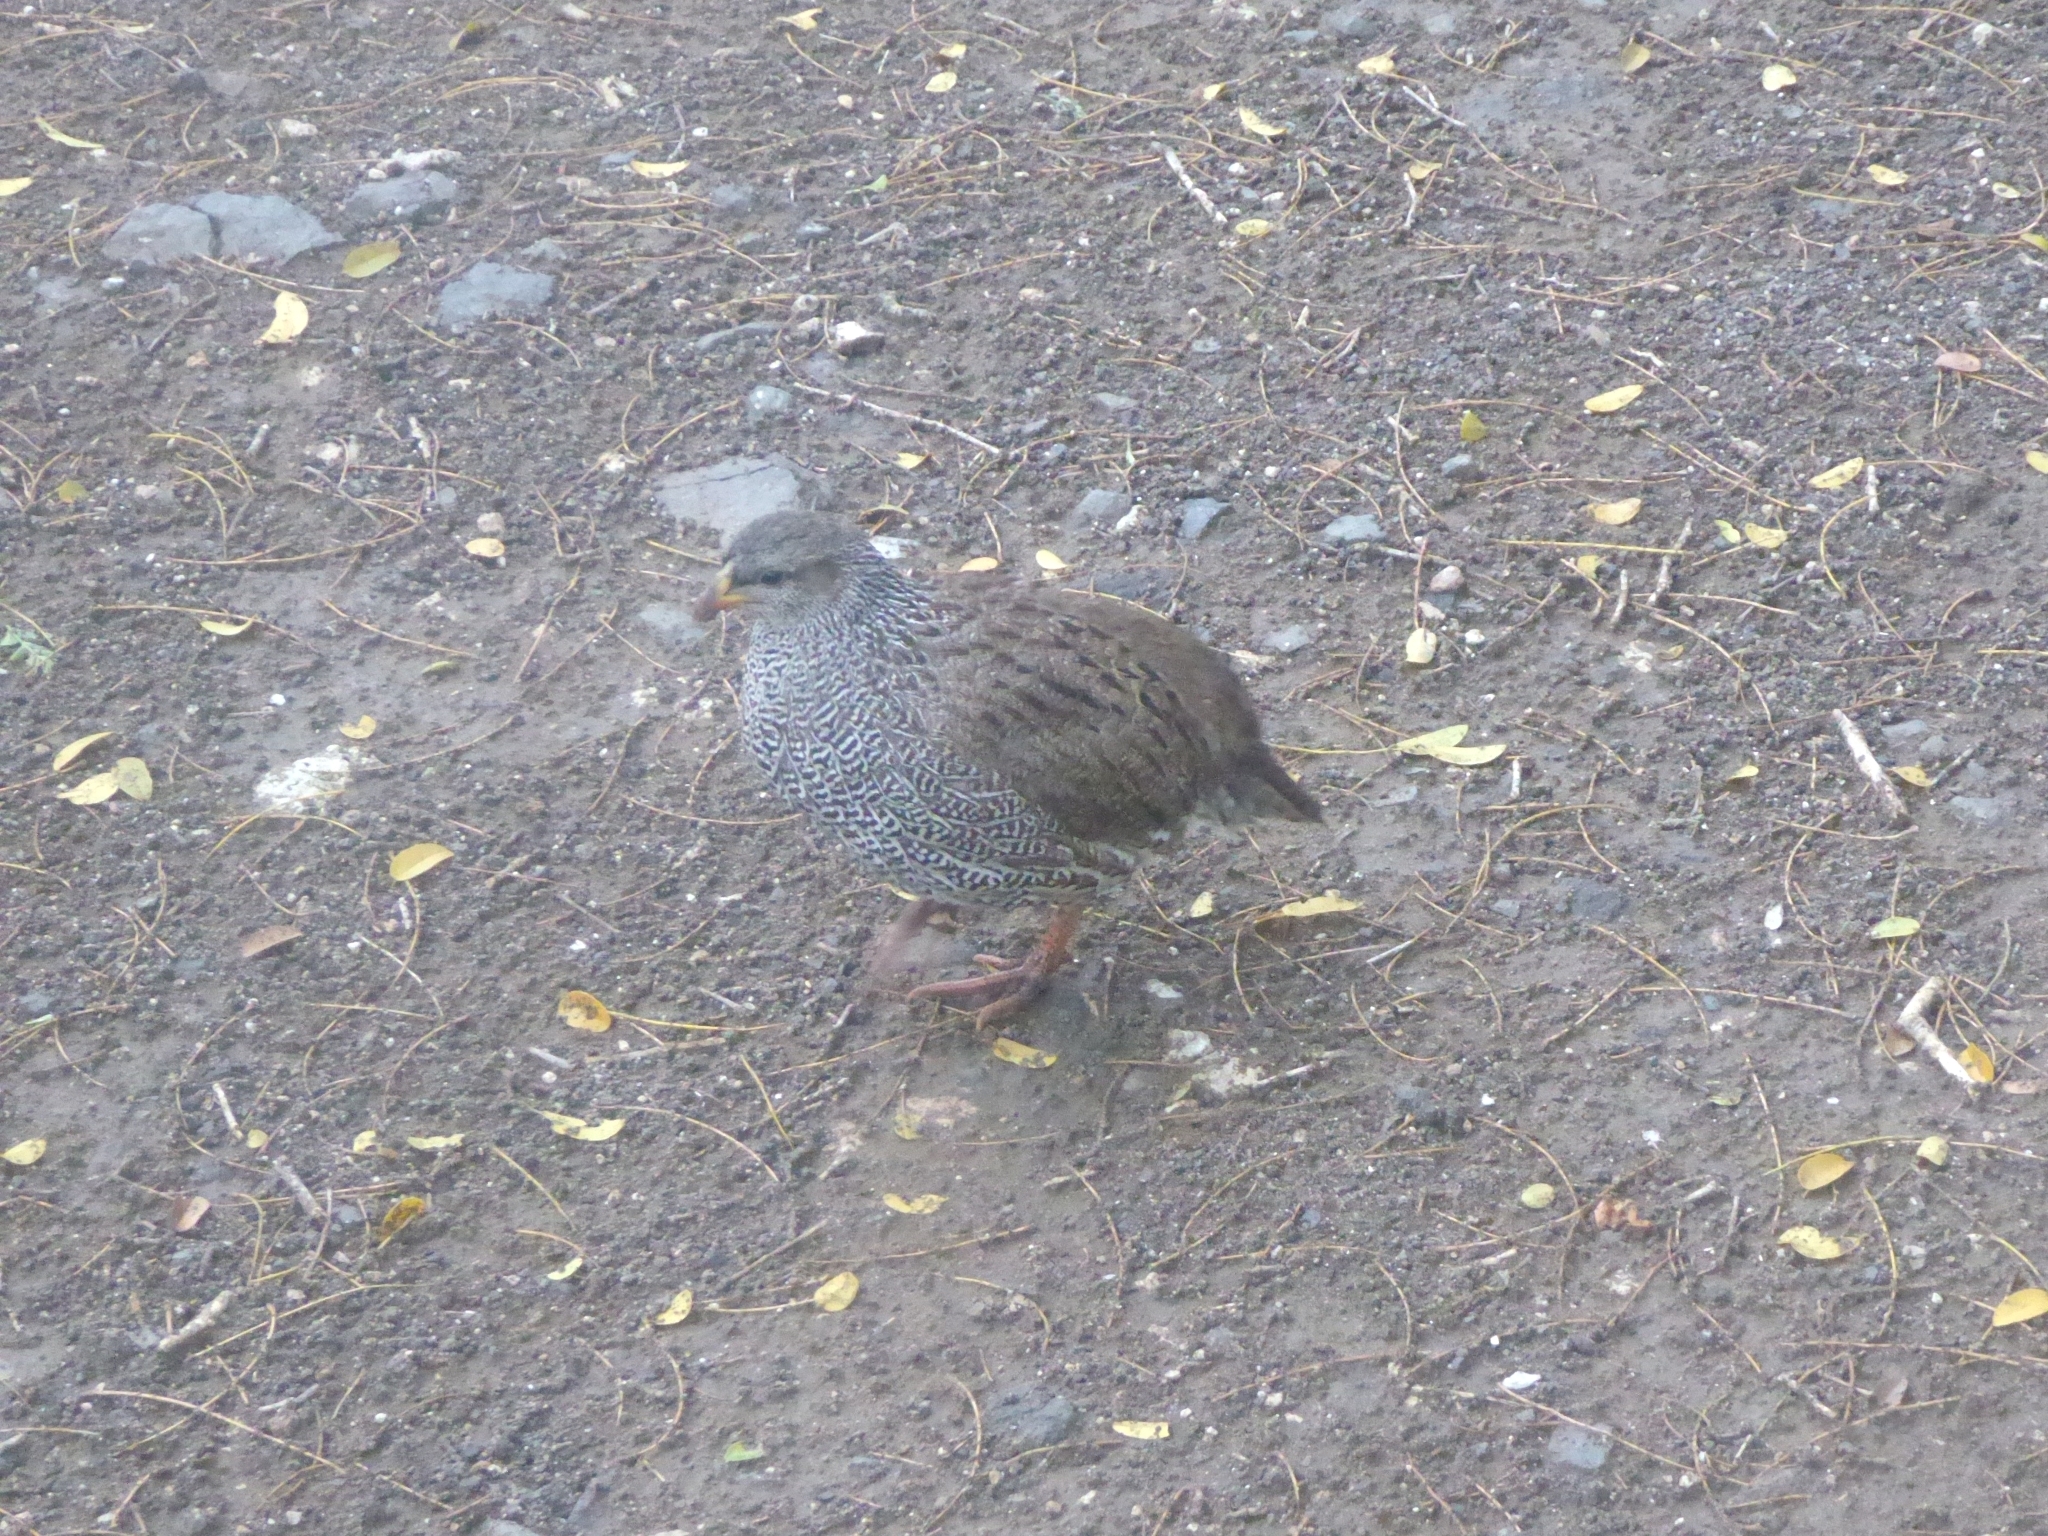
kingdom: Animalia
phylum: Chordata
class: Aves
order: Galliformes
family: Phasianidae
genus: Pternistis
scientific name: Pternistis natalensis
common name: Natal spurfowl
